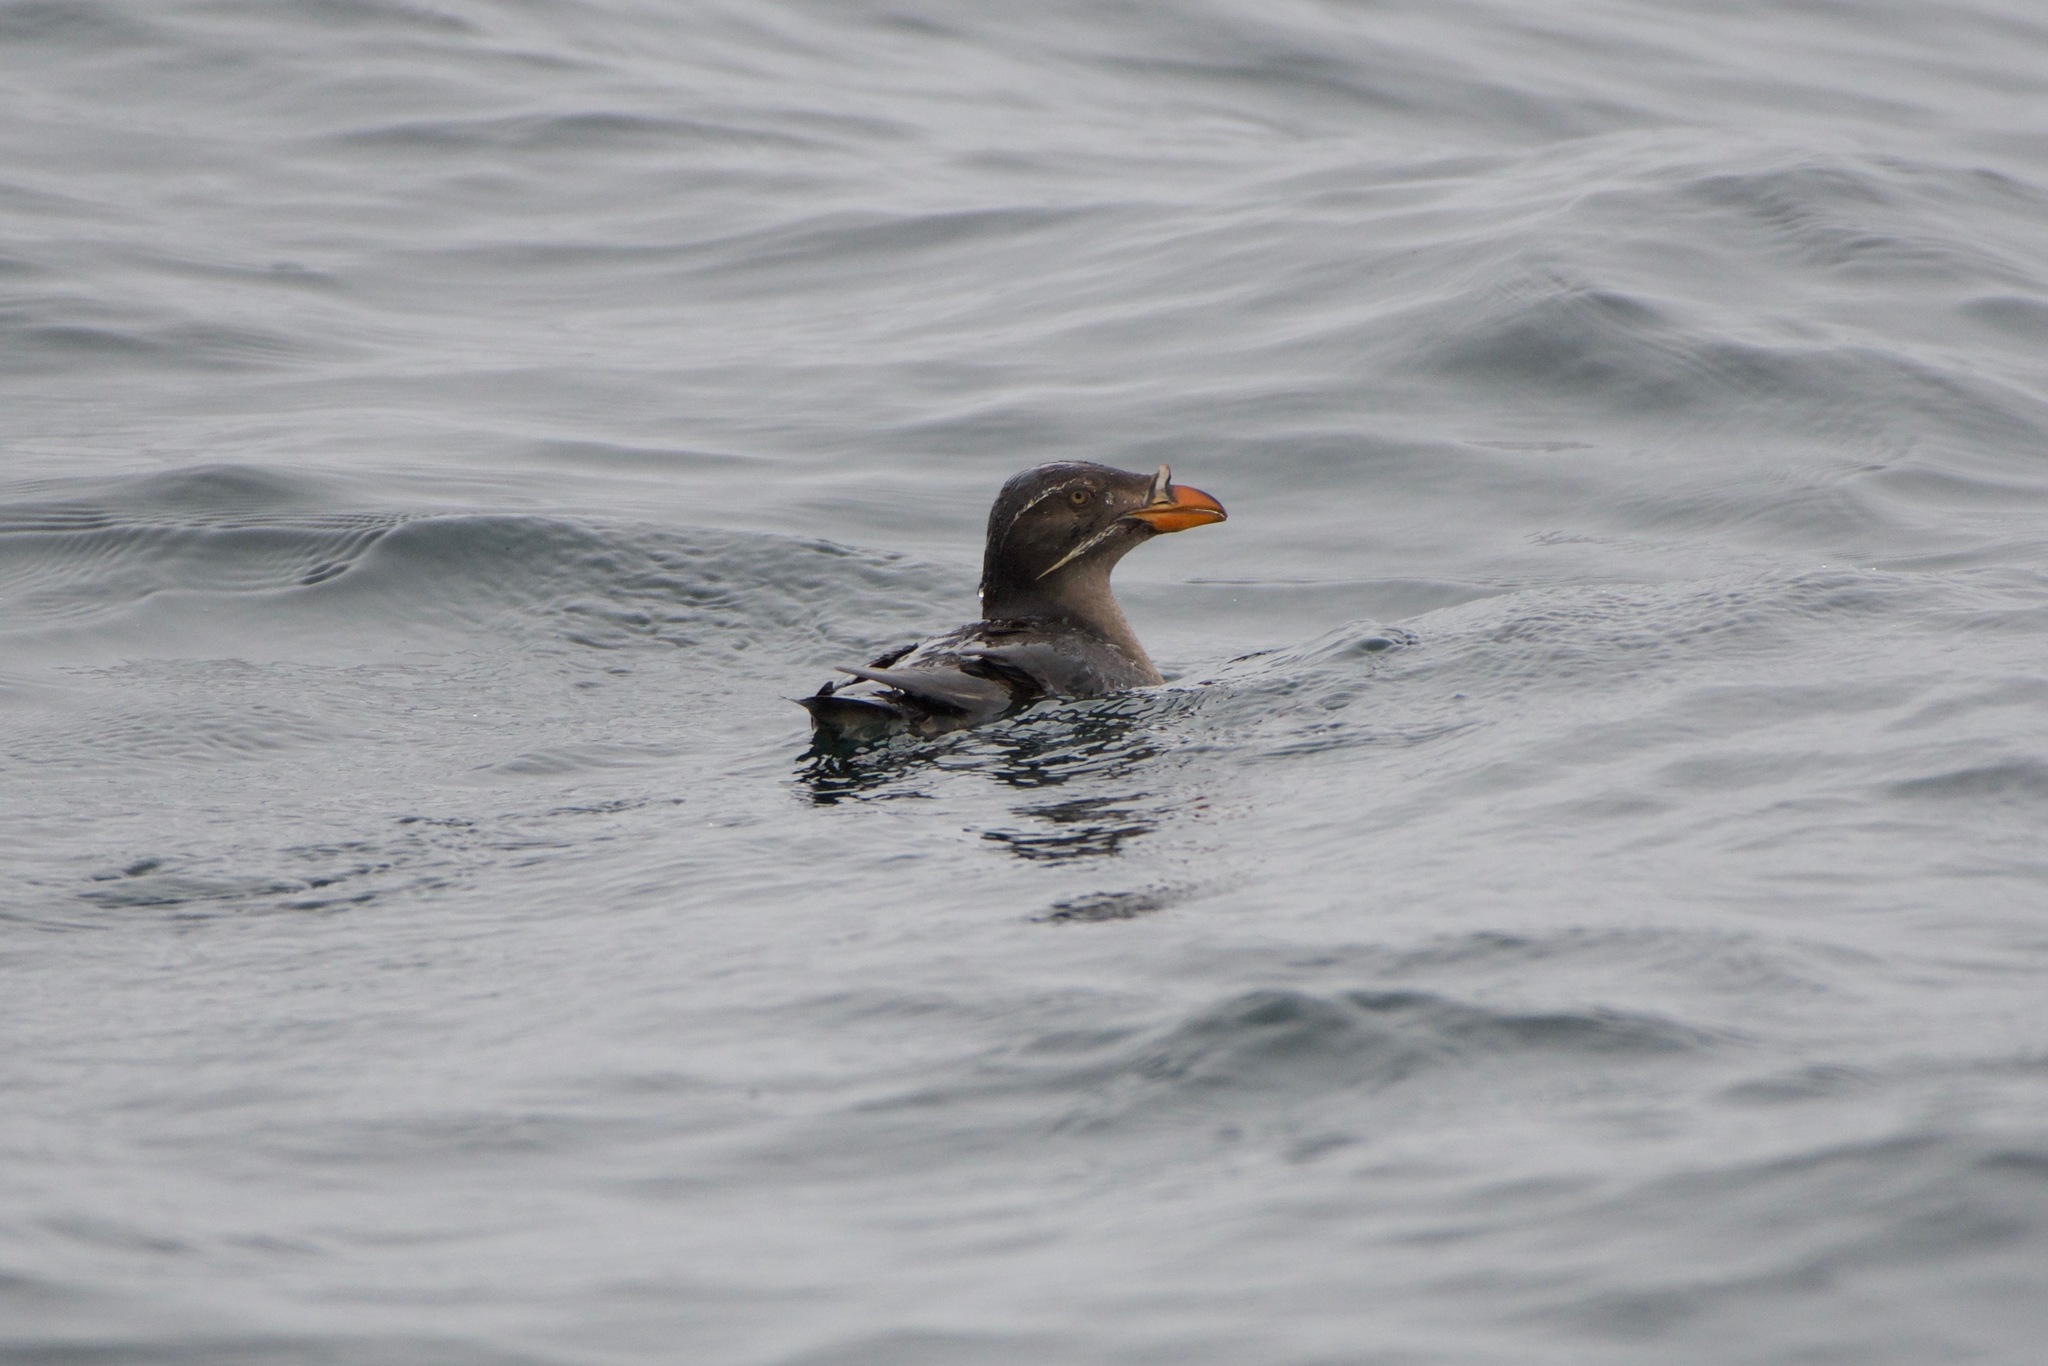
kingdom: Animalia
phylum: Chordata
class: Aves
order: Charadriiformes
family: Alcidae
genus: Cerorhinca
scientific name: Cerorhinca monocerata
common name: Rhinoceros auklet
